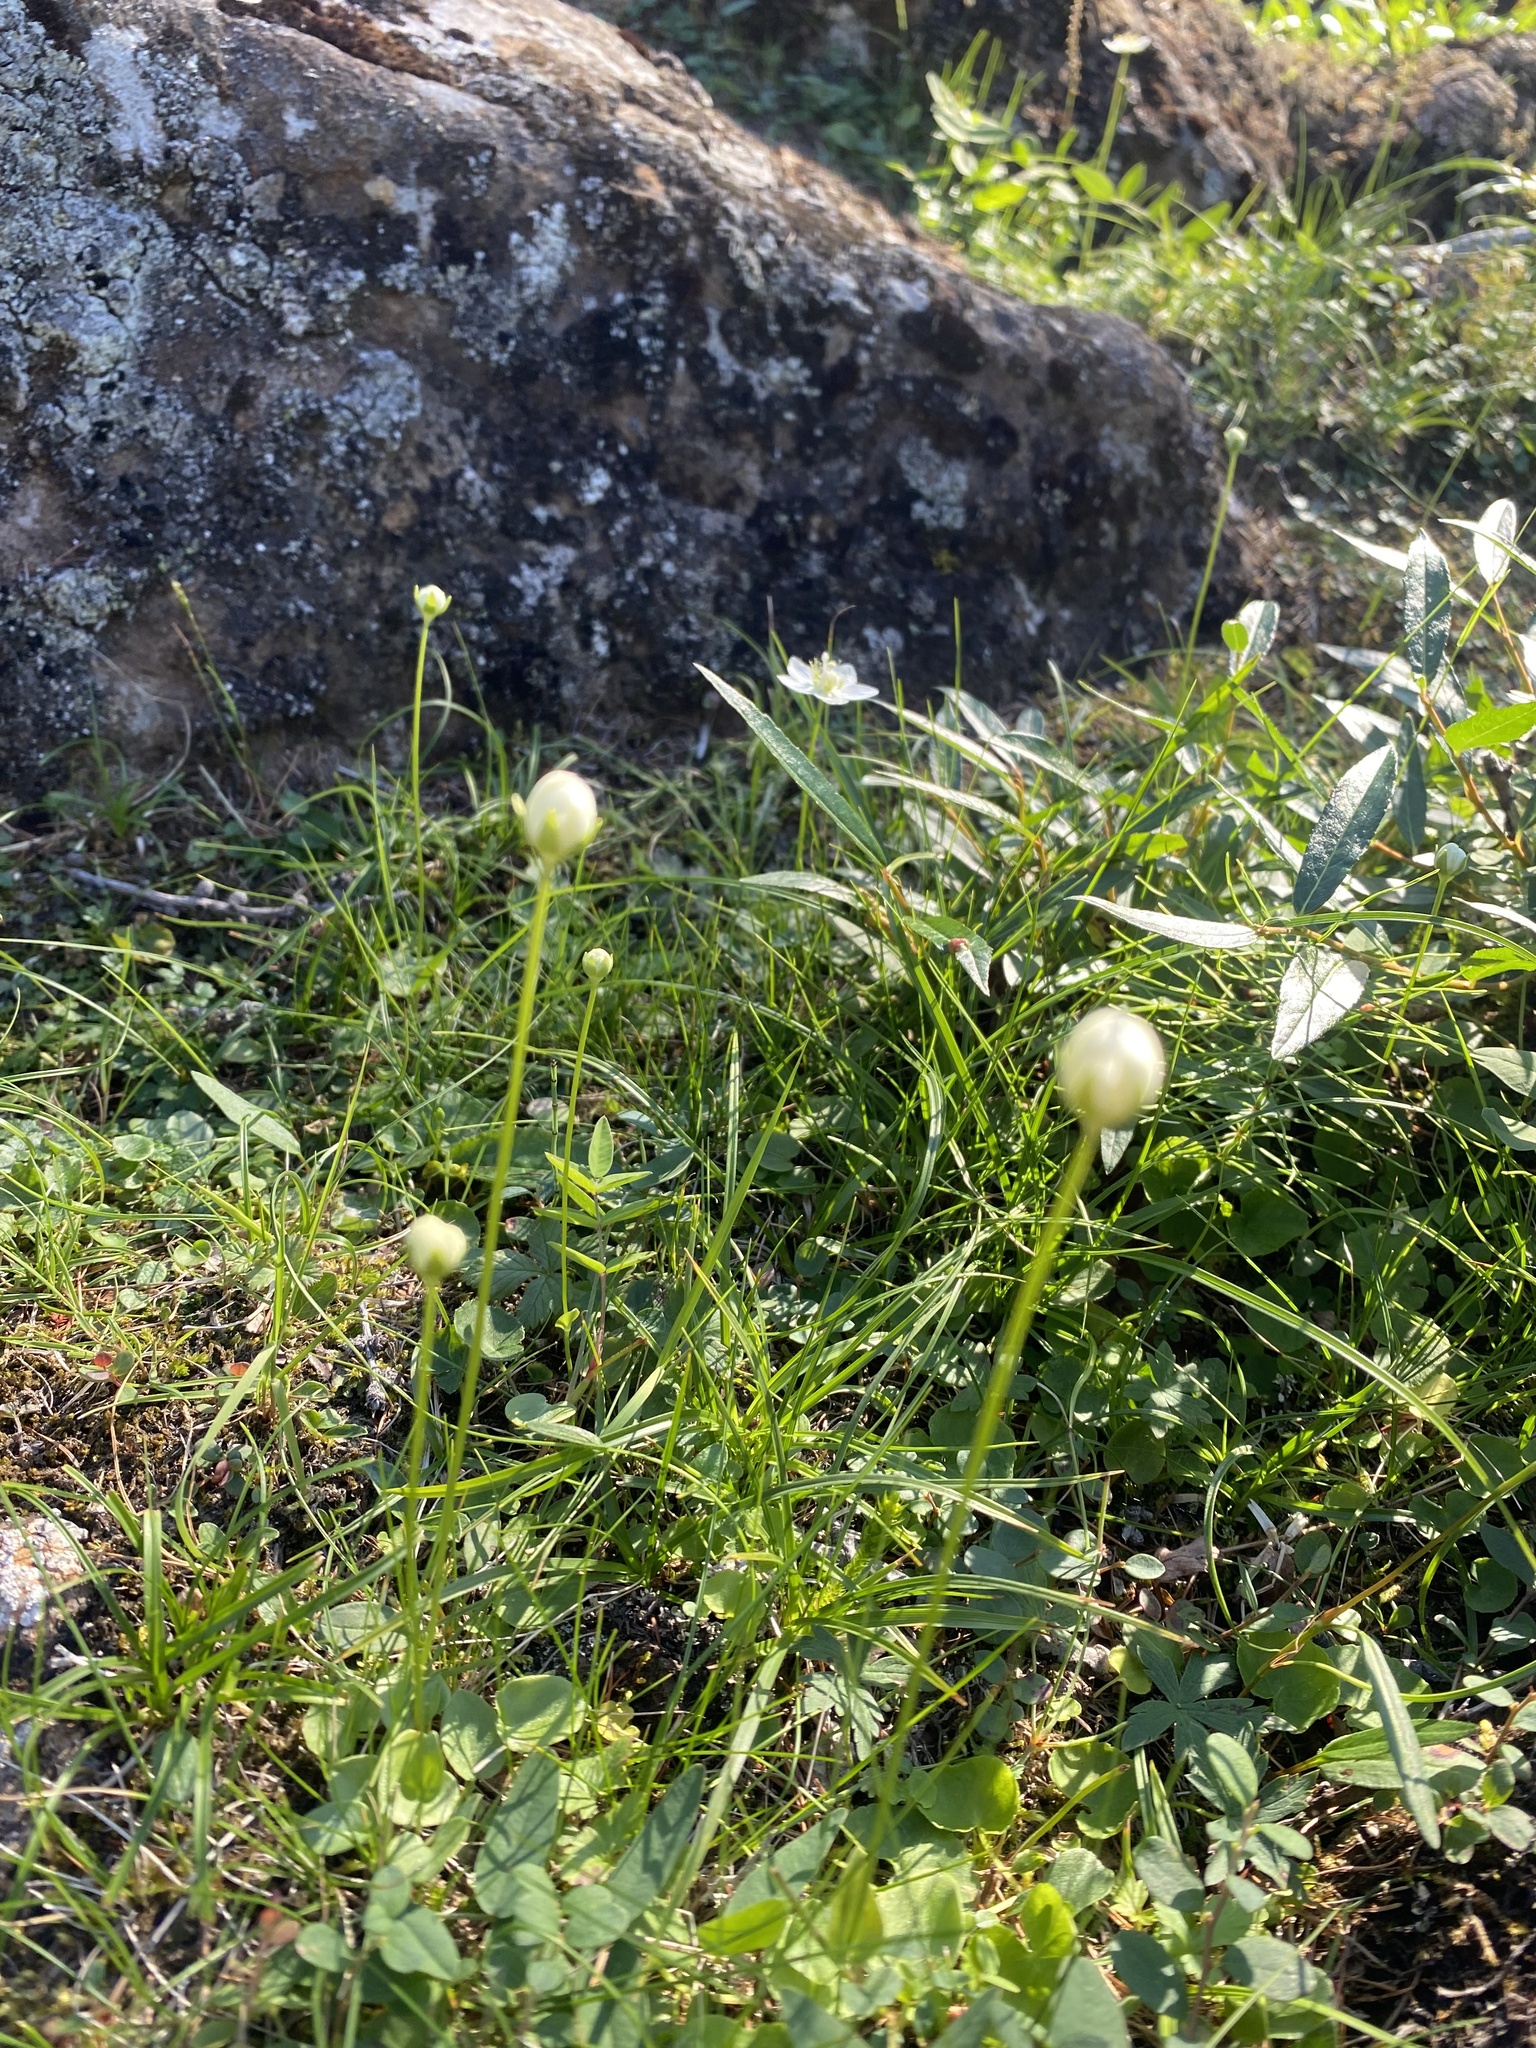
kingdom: Plantae
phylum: Tracheophyta
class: Magnoliopsida
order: Celastrales
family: Parnassiaceae
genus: Parnassia
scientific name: Parnassia palustris
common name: Grass-of-parnassus
